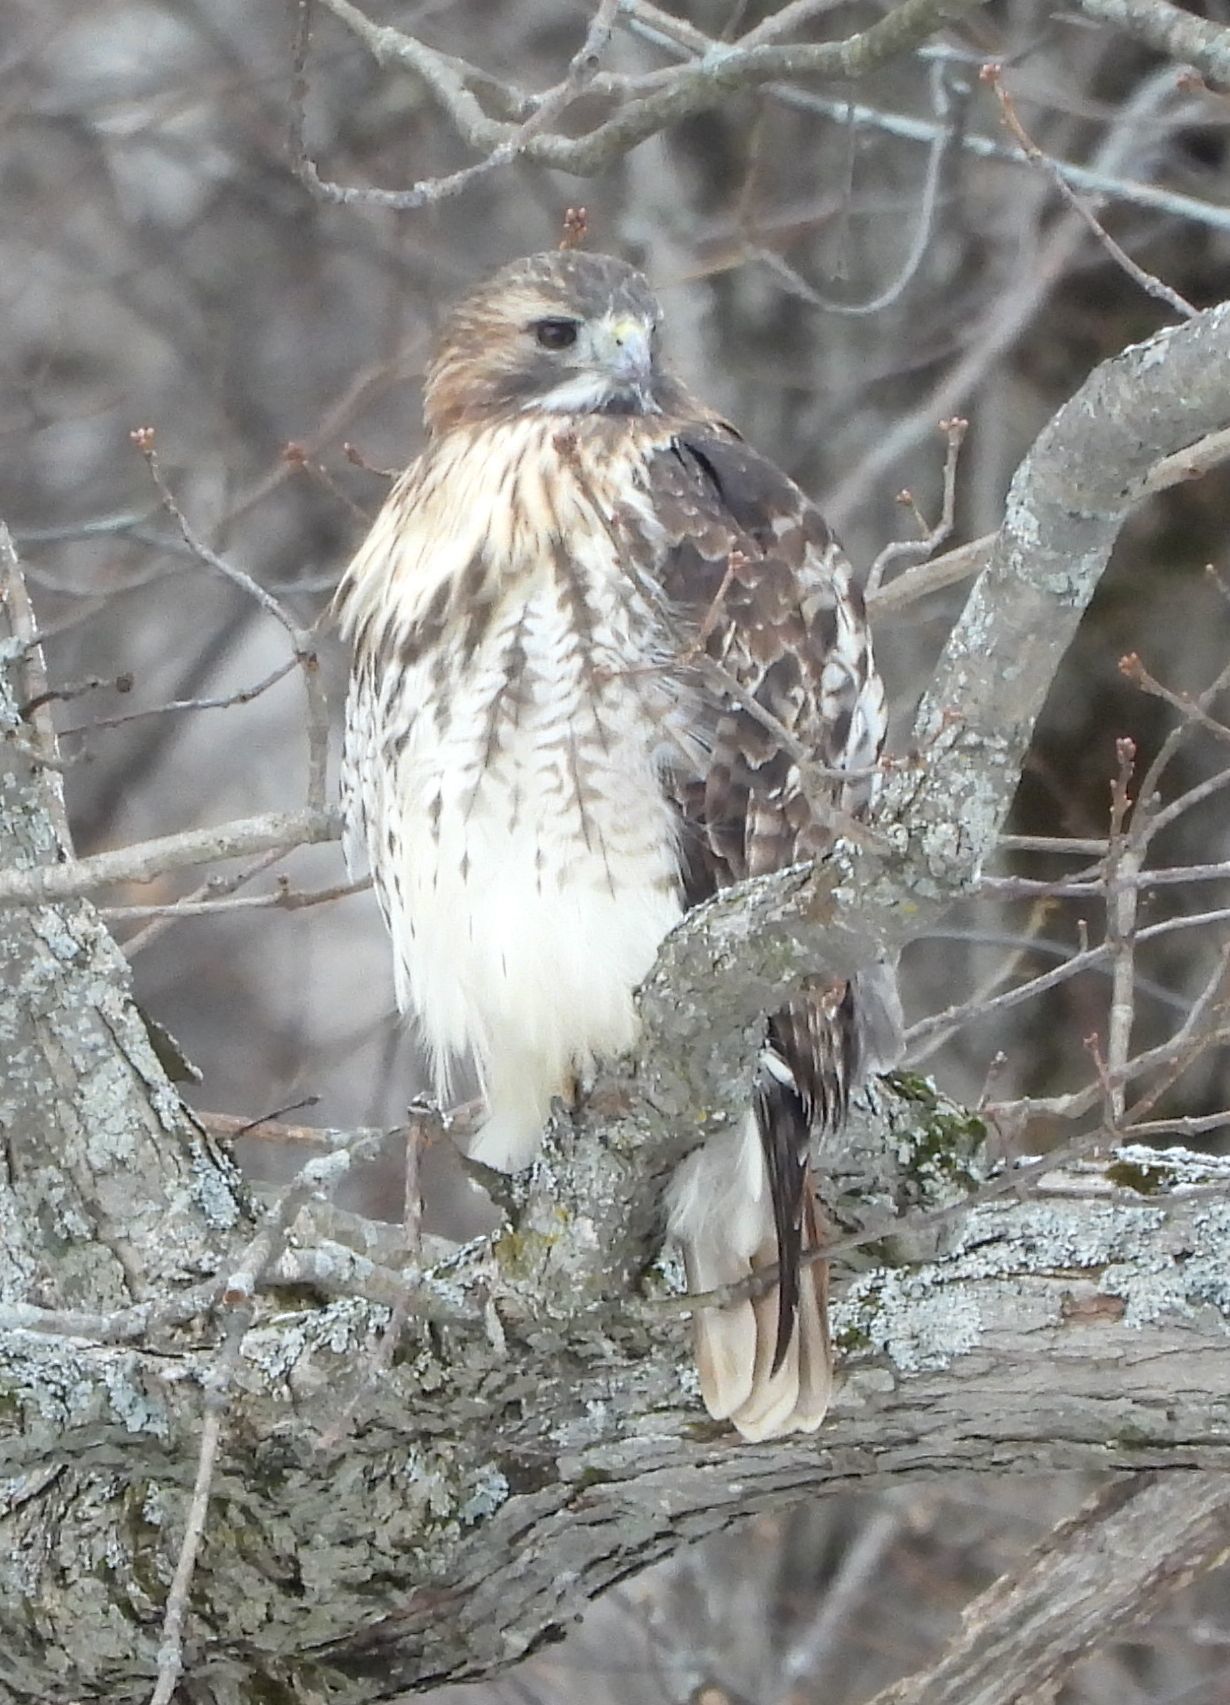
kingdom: Animalia
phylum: Chordata
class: Aves
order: Accipitriformes
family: Accipitridae
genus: Buteo
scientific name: Buteo jamaicensis
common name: Red-tailed hawk
